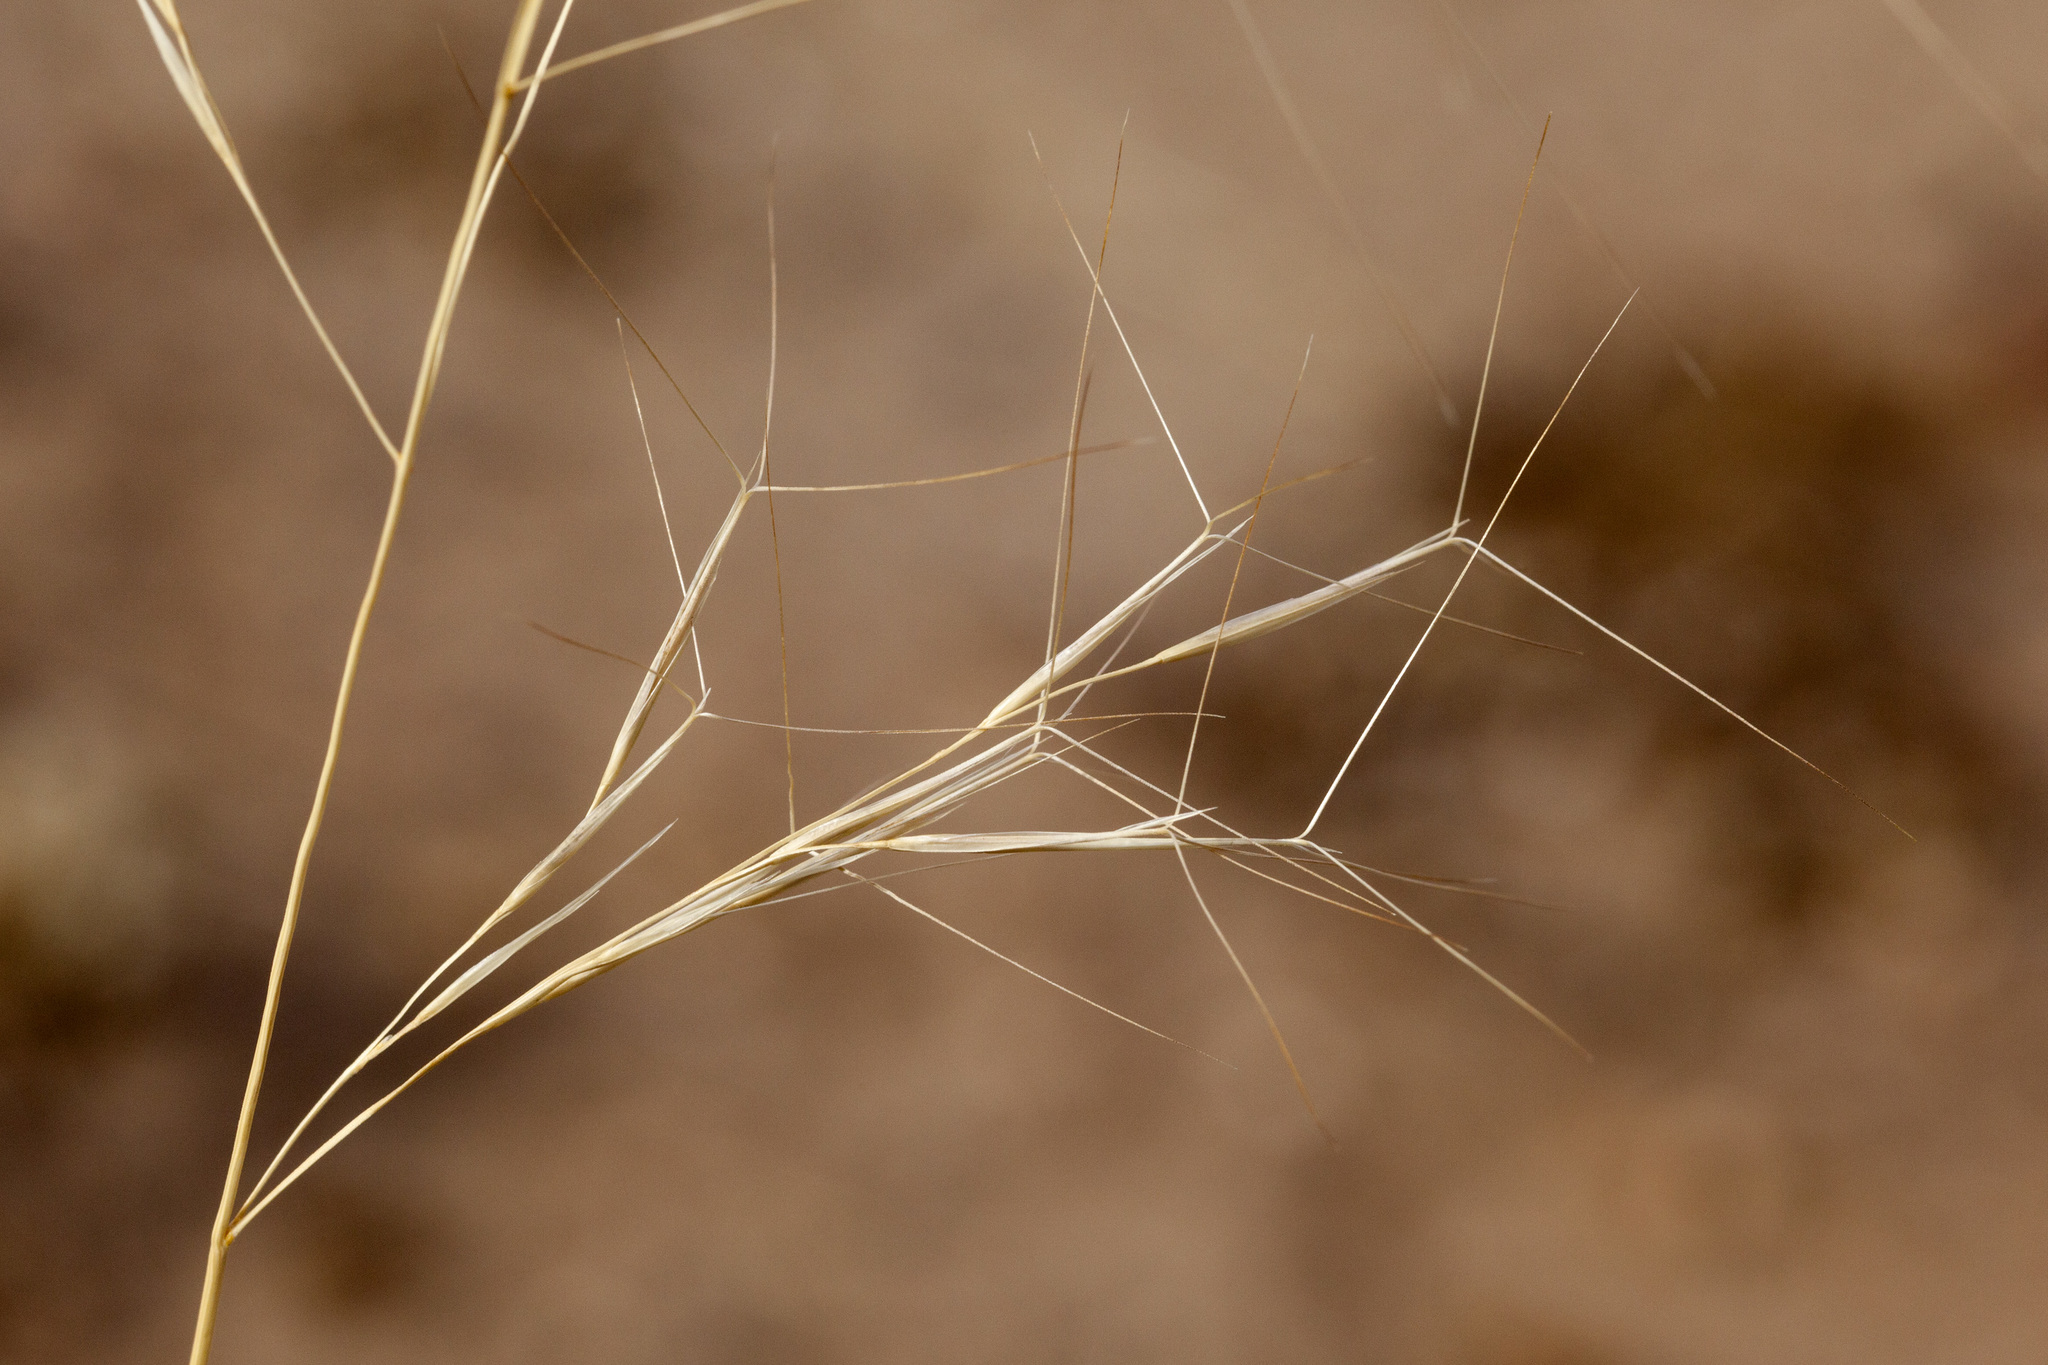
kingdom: Plantae
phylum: Tracheophyta
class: Liliopsida
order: Poales
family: Poaceae
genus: Aristida
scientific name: Aristida purpurea
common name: Purple threeawn
